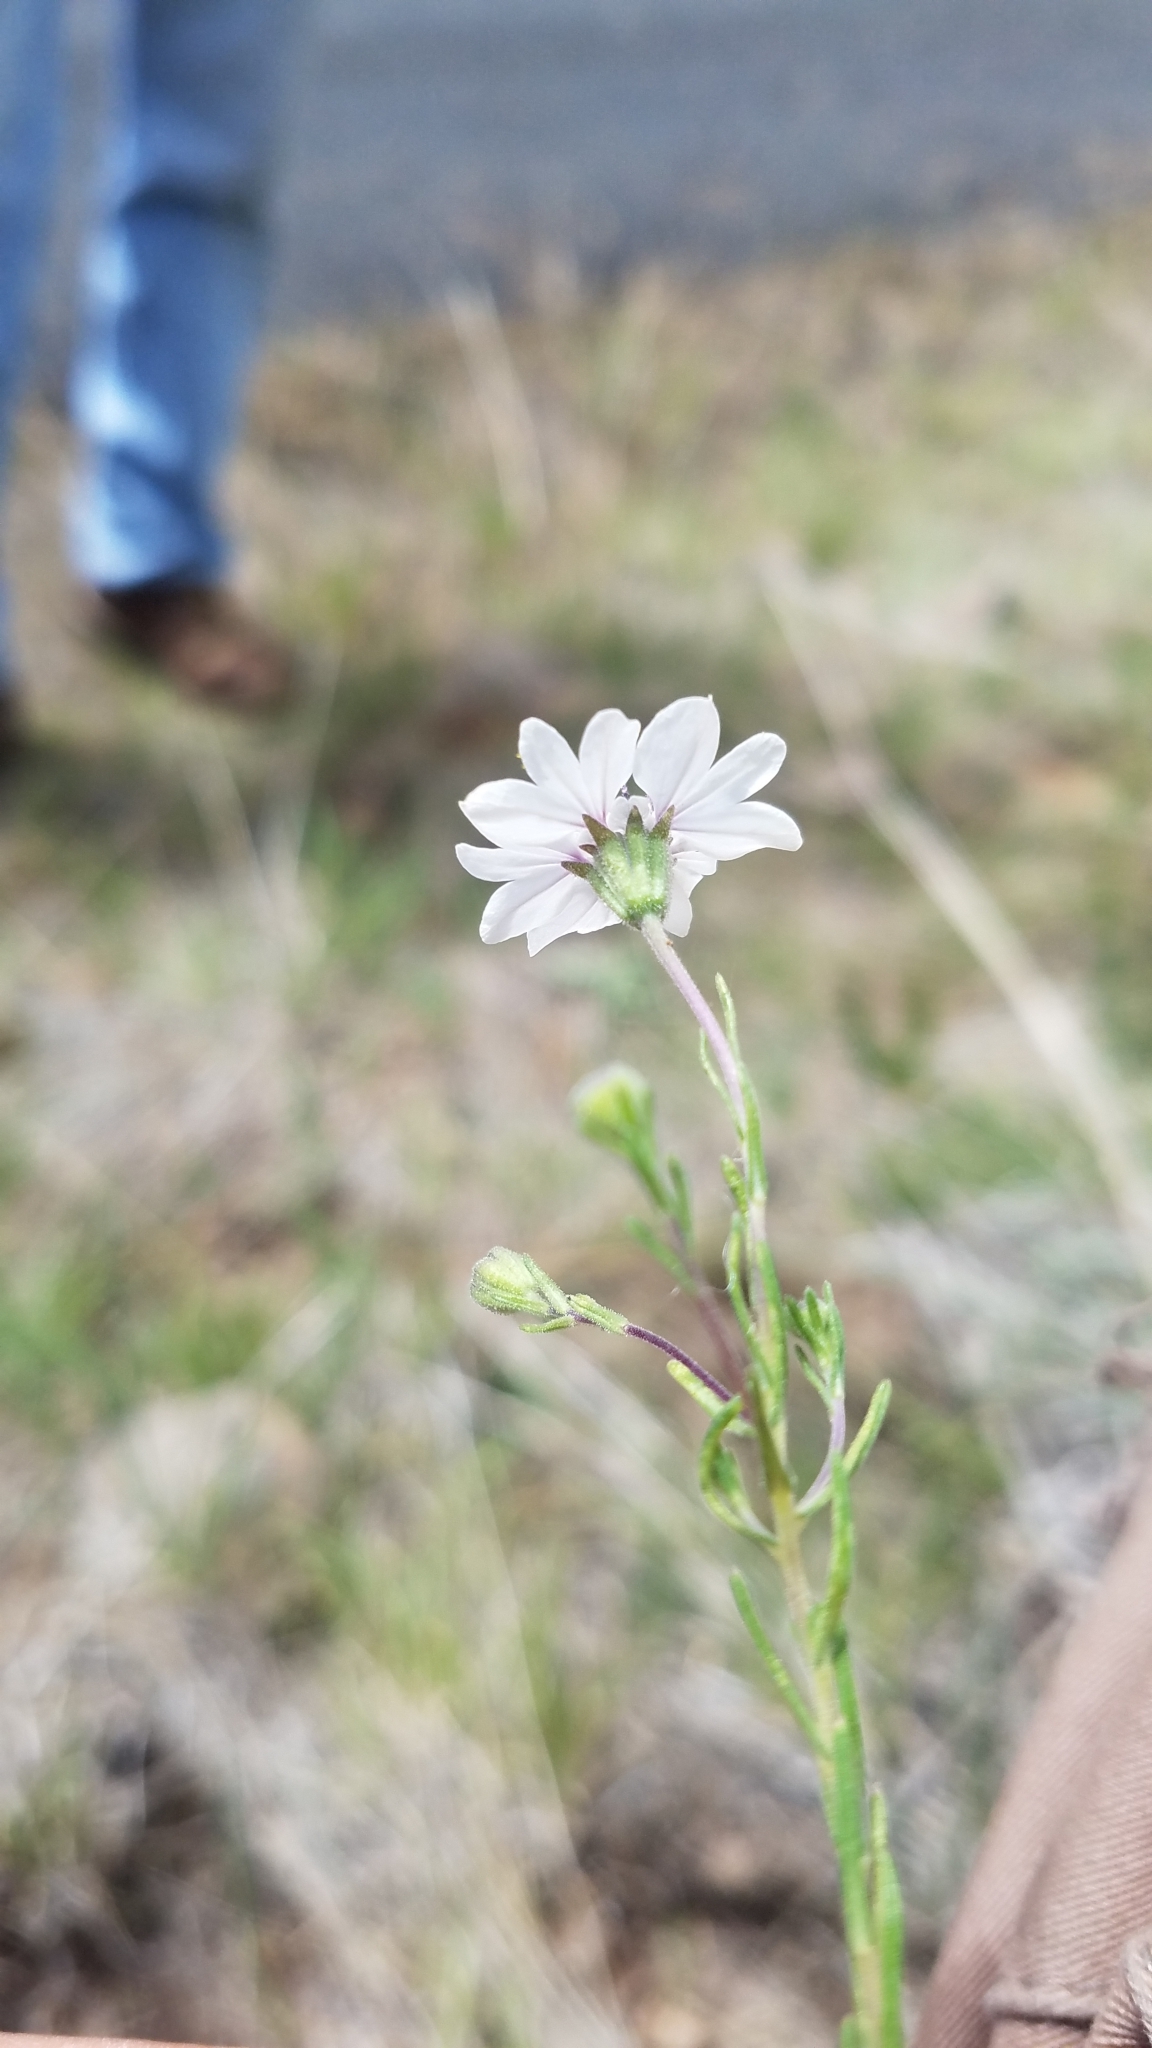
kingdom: Plantae
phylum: Tracheophyta
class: Magnoliopsida
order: Asterales
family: Asteraceae
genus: Blepharipappus
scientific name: Blepharipappus scaber
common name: Rough blepharipappus
